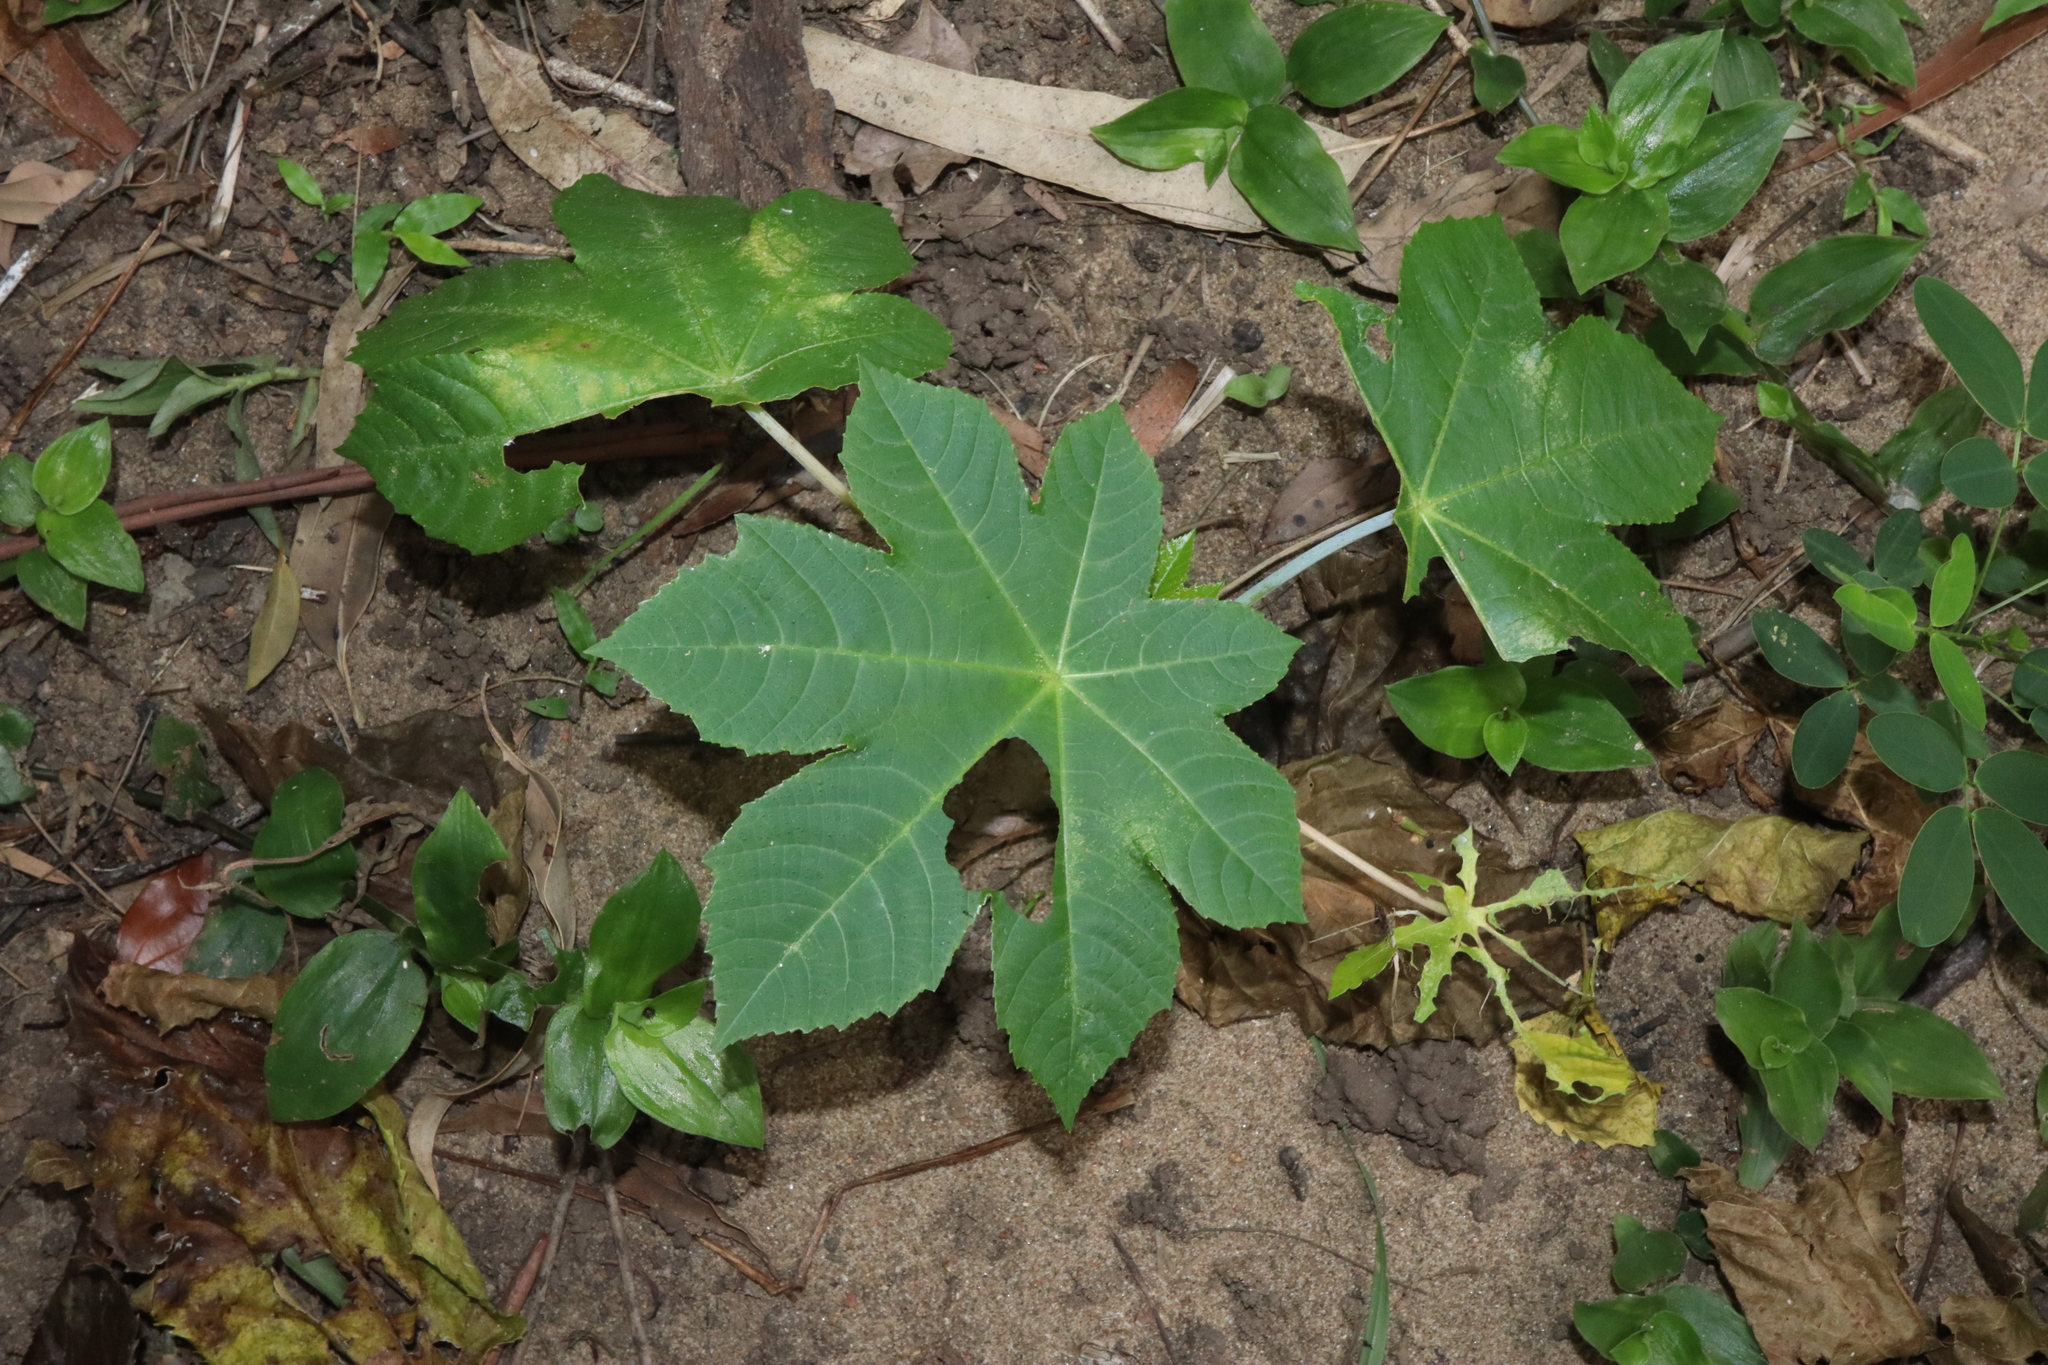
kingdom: Plantae
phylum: Tracheophyta
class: Magnoliopsida
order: Malpighiales
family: Euphorbiaceae
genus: Ricinus
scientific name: Ricinus communis
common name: Castor-oil-plant
